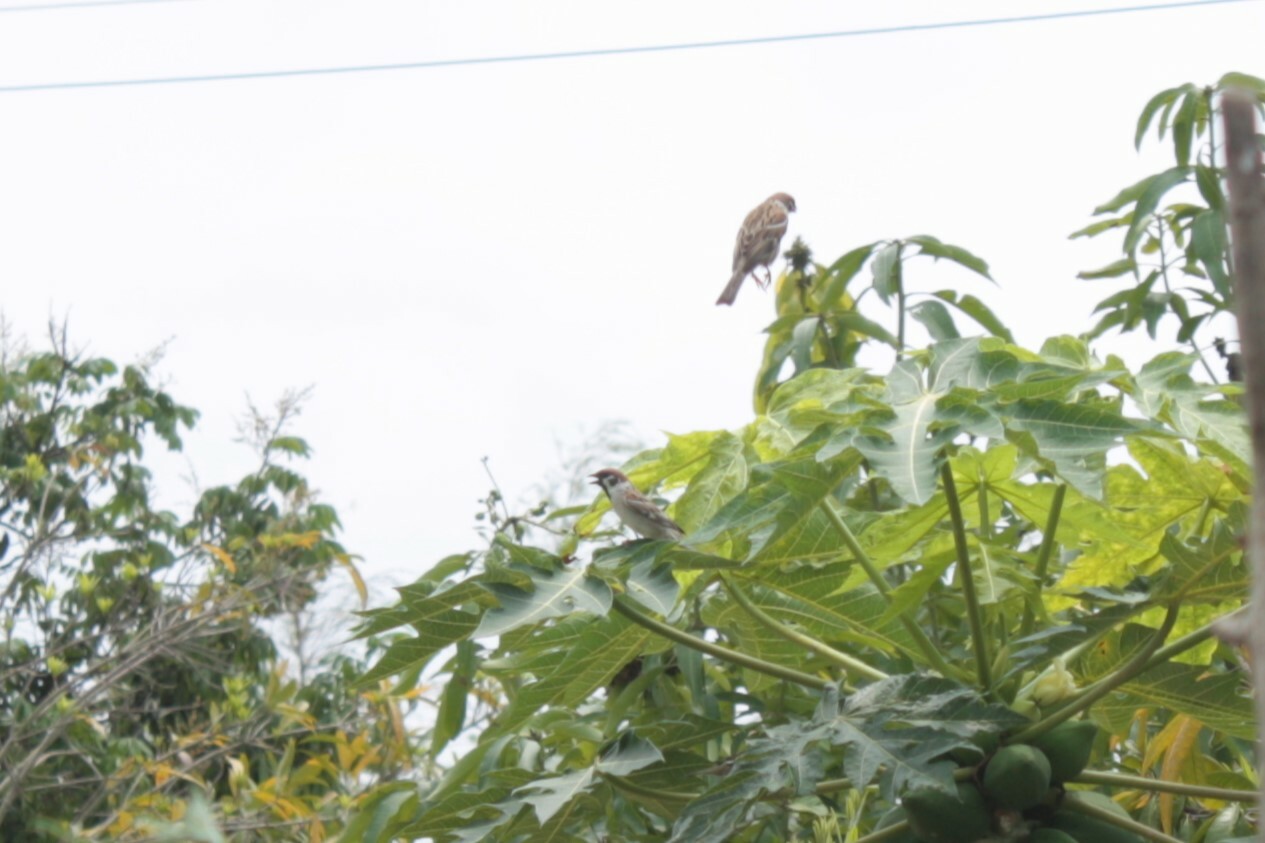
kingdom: Animalia
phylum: Chordata
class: Aves
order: Passeriformes
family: Passeridae
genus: Passer
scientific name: Passer montanus
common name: Eurasian tree sparrow
